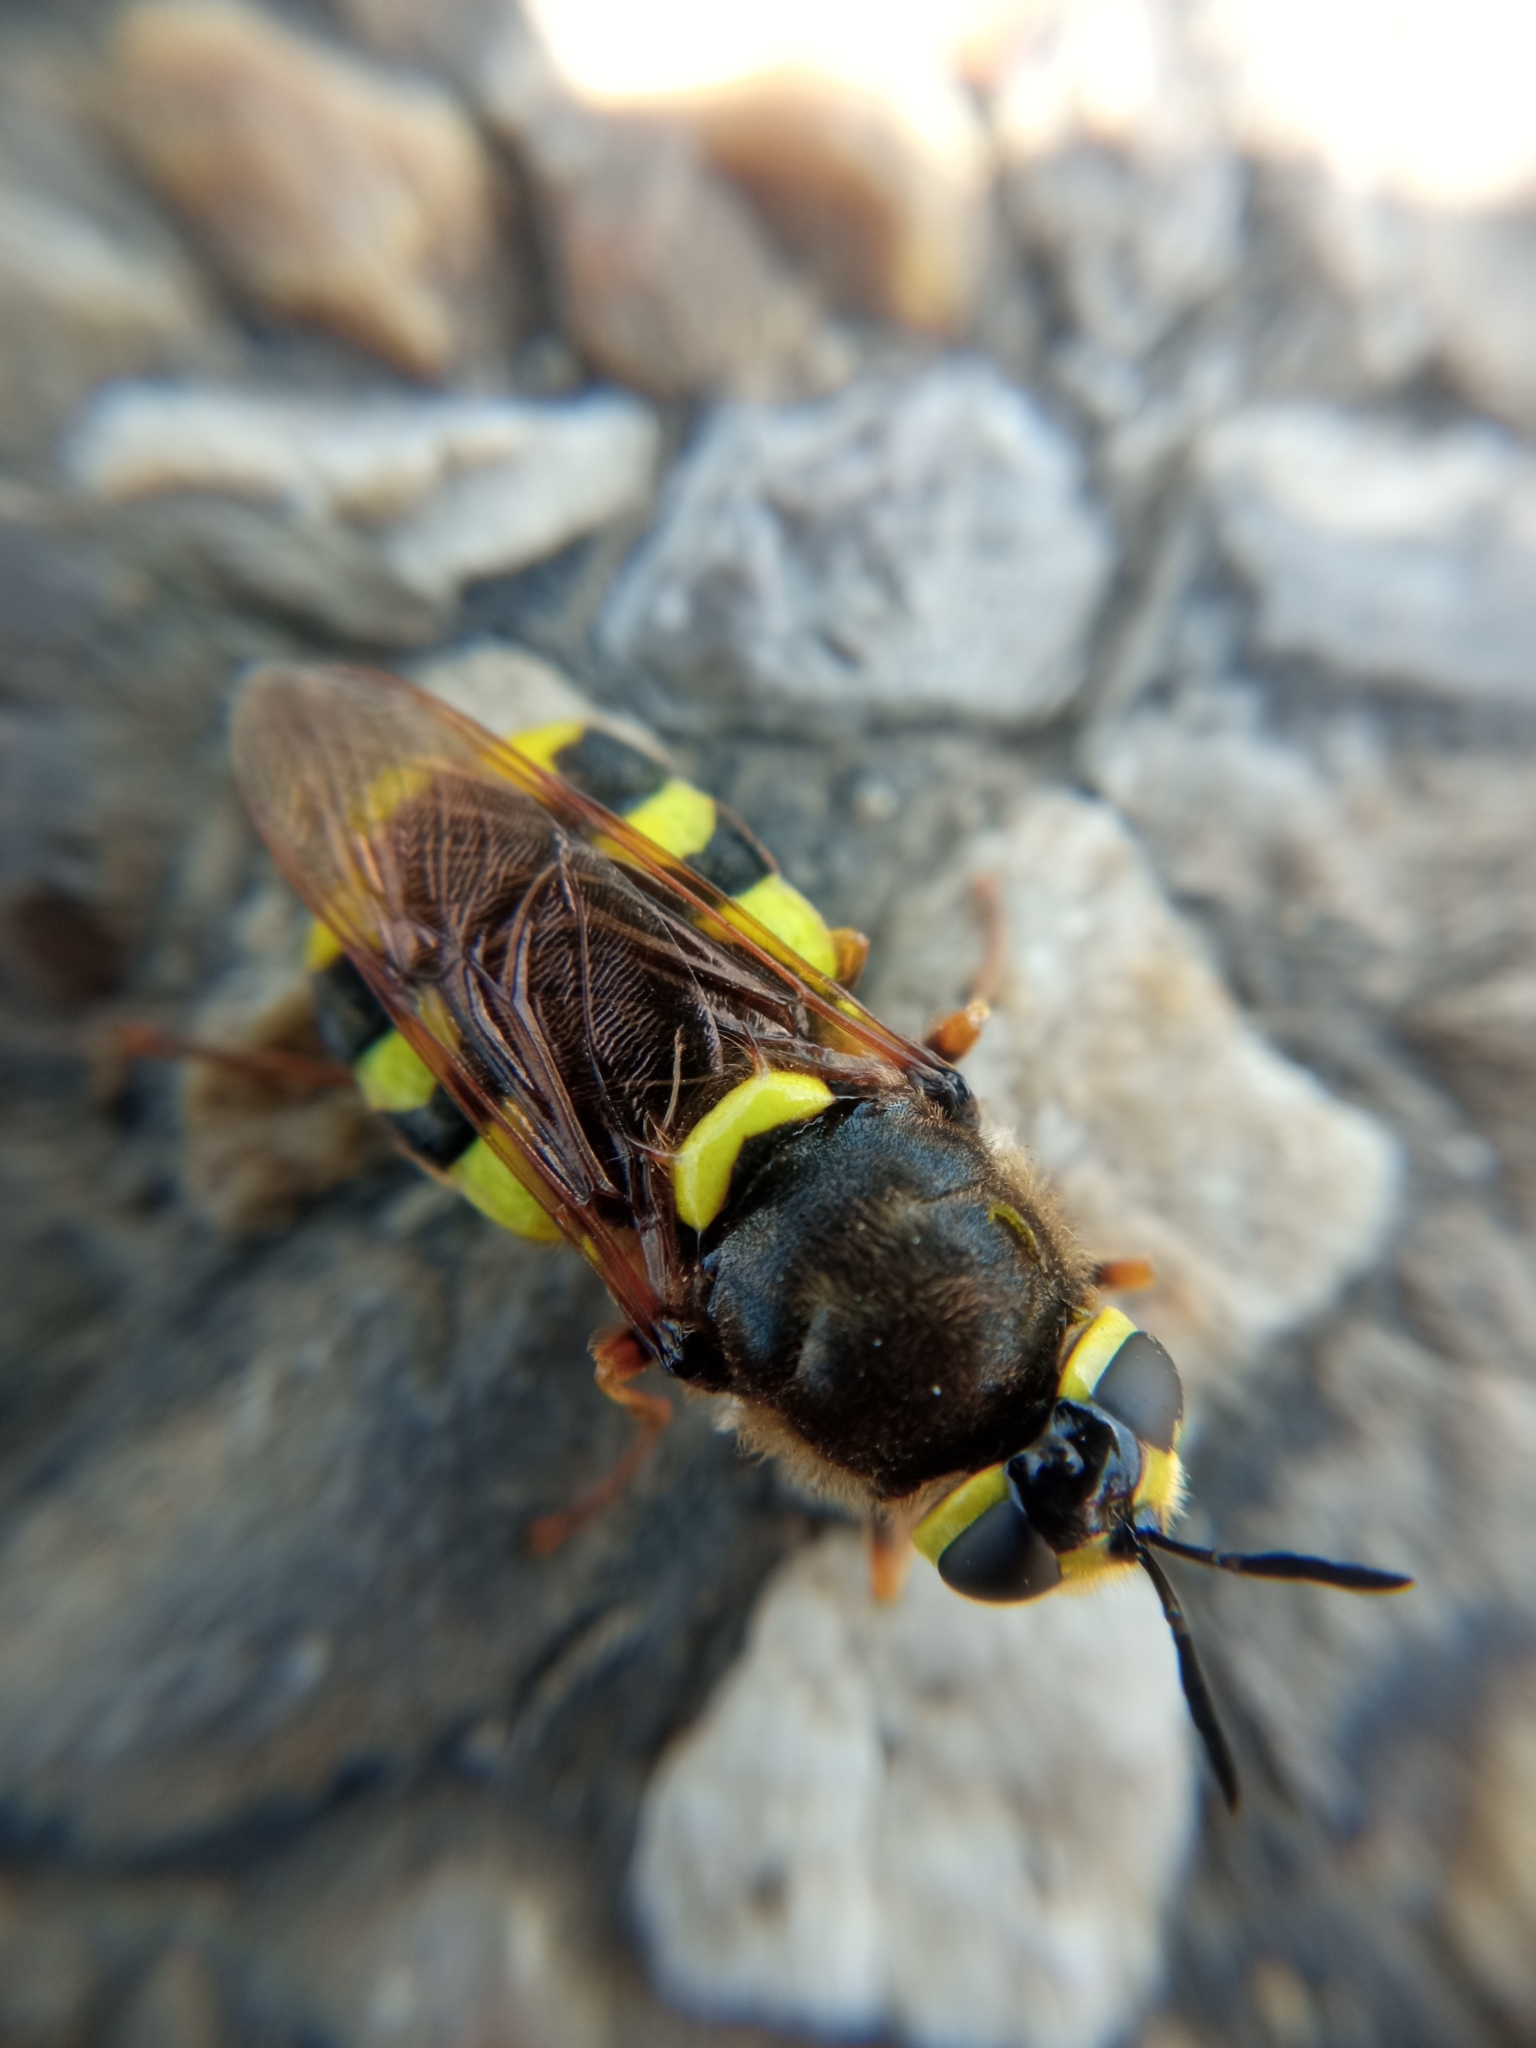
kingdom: Animalia
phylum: Arthropoda
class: Insecta
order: Diptera
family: Stratiomyidae
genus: Stratiomys
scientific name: Stratiomys chamaeleon
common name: Clubbed general
